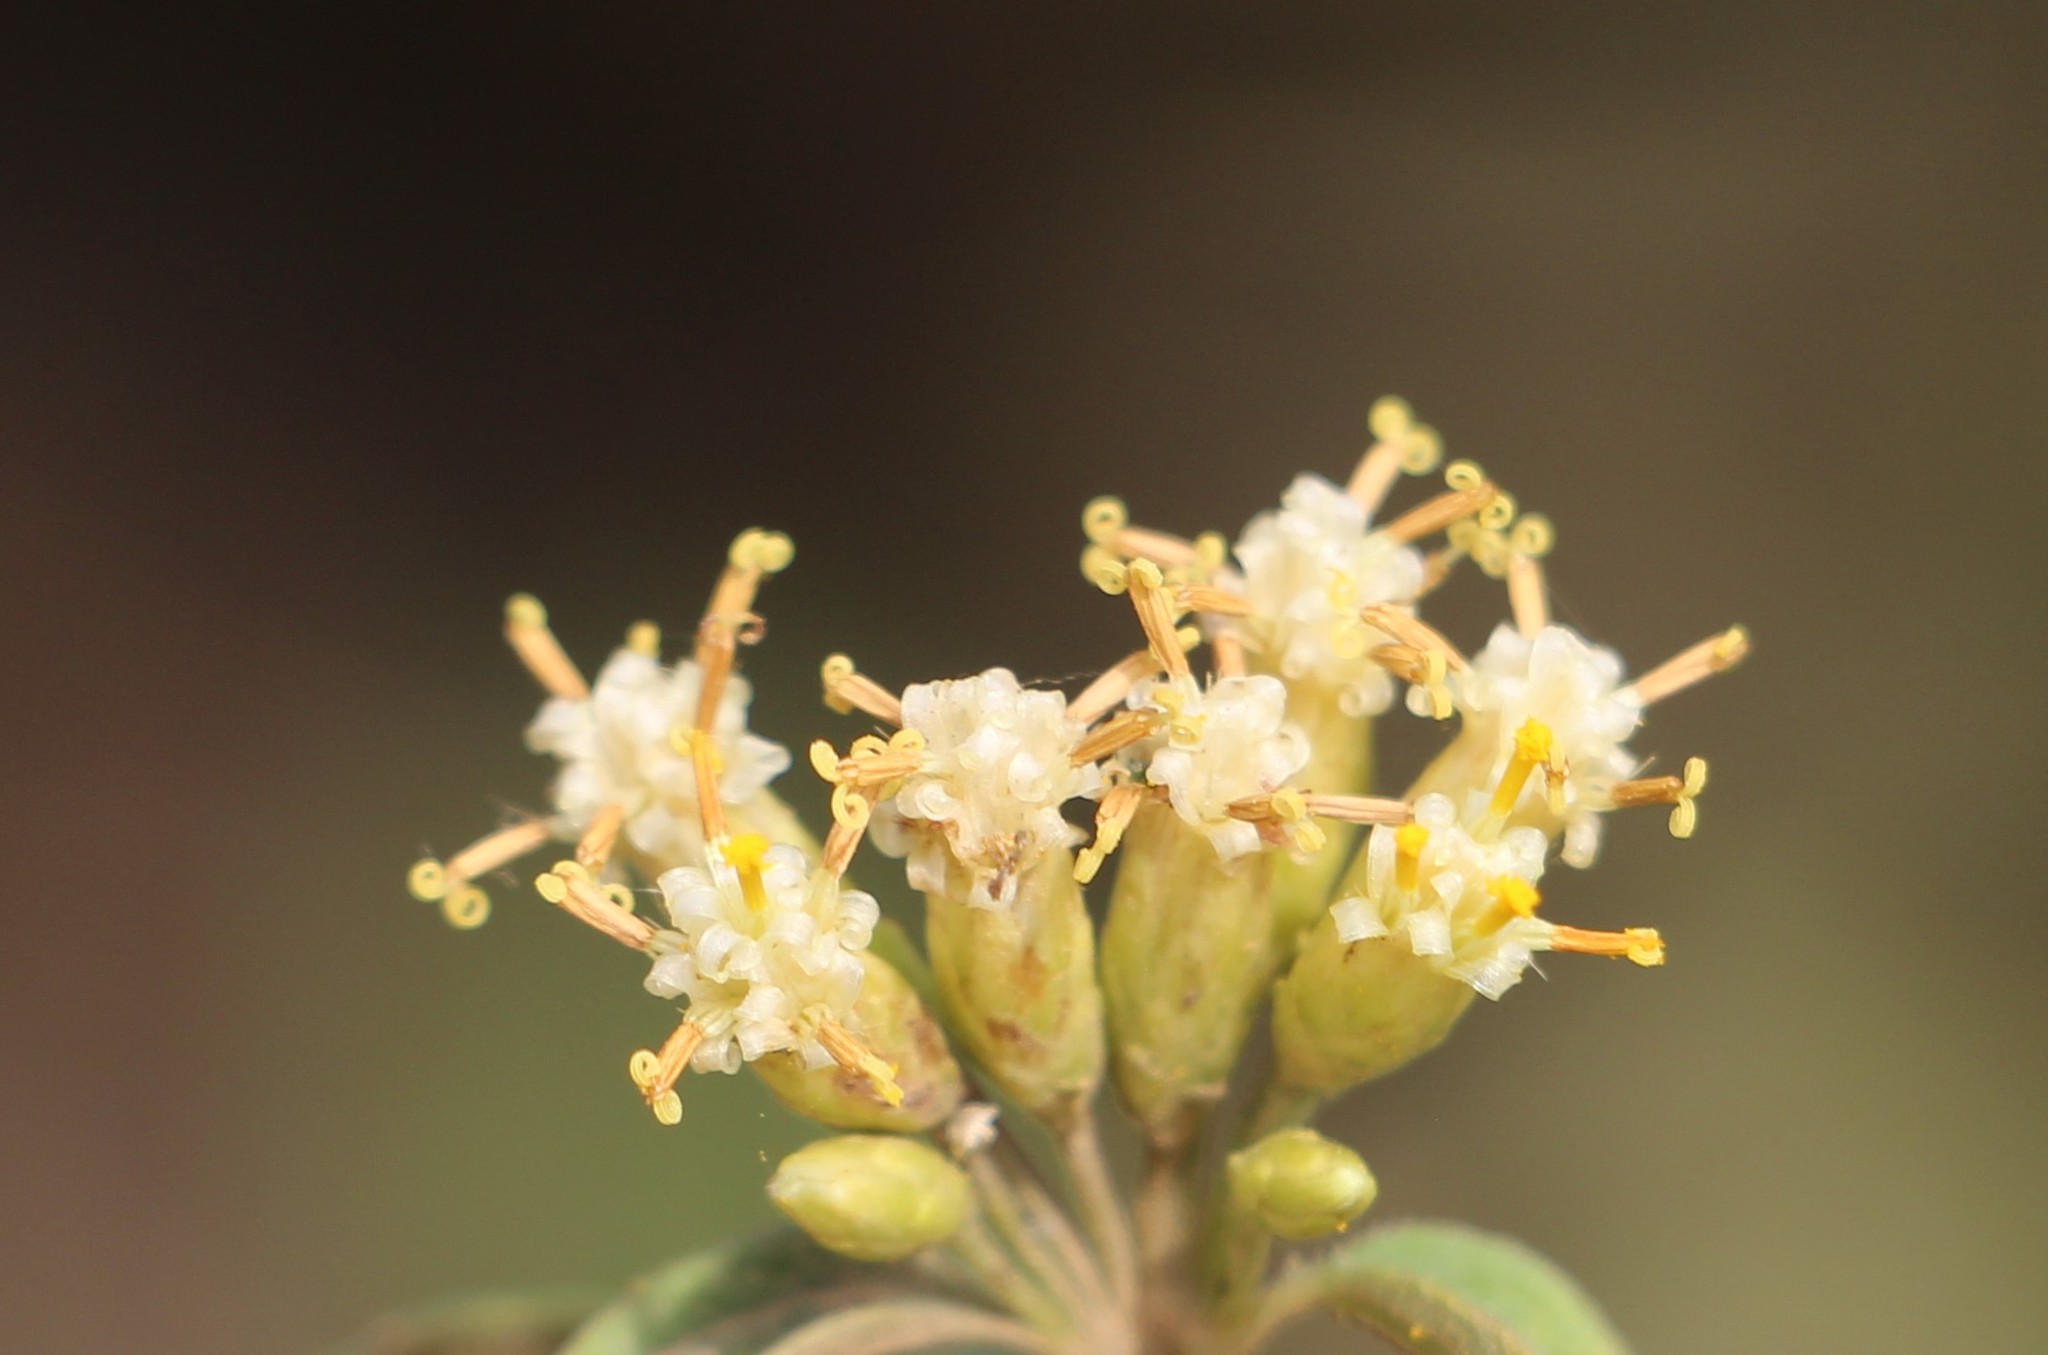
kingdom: Plantae
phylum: Tracheophyta
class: Magnoliopsida
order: Asterales
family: Asteraceae
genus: Calea
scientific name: Calea ternifolia
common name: Mexican calea
